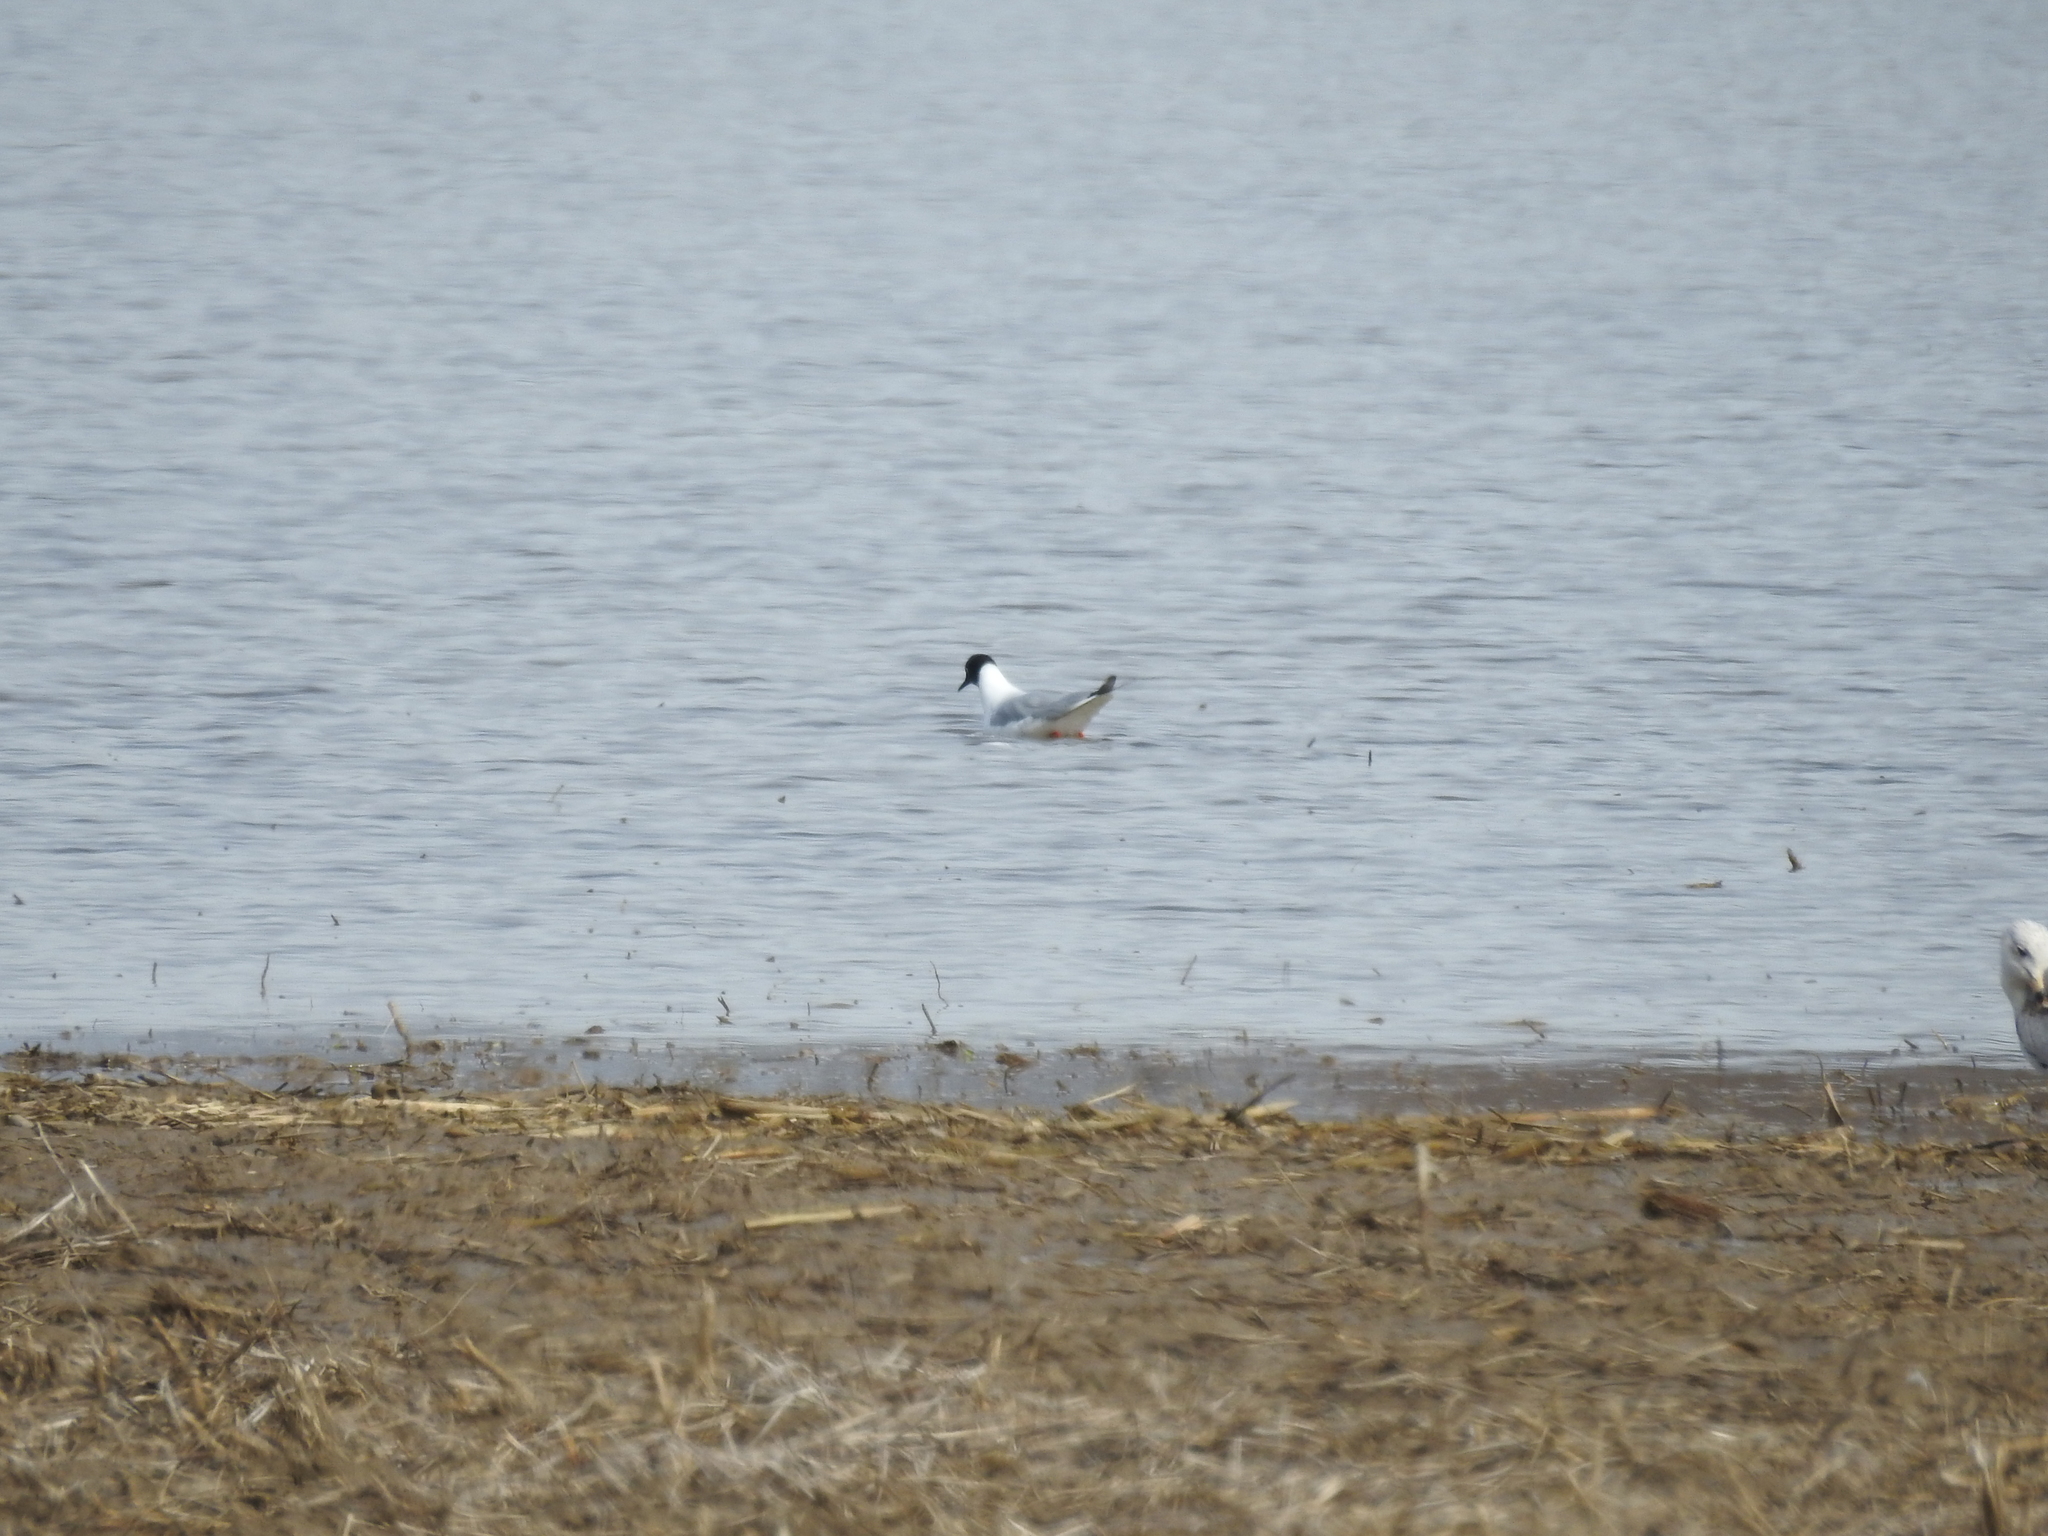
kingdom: Animalia
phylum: Chordata
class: Aves
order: Charadriiformes
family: Laridae
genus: Chroicocephalus
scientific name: Chroicocephalus philadelphia
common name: Bonaparte's gull
